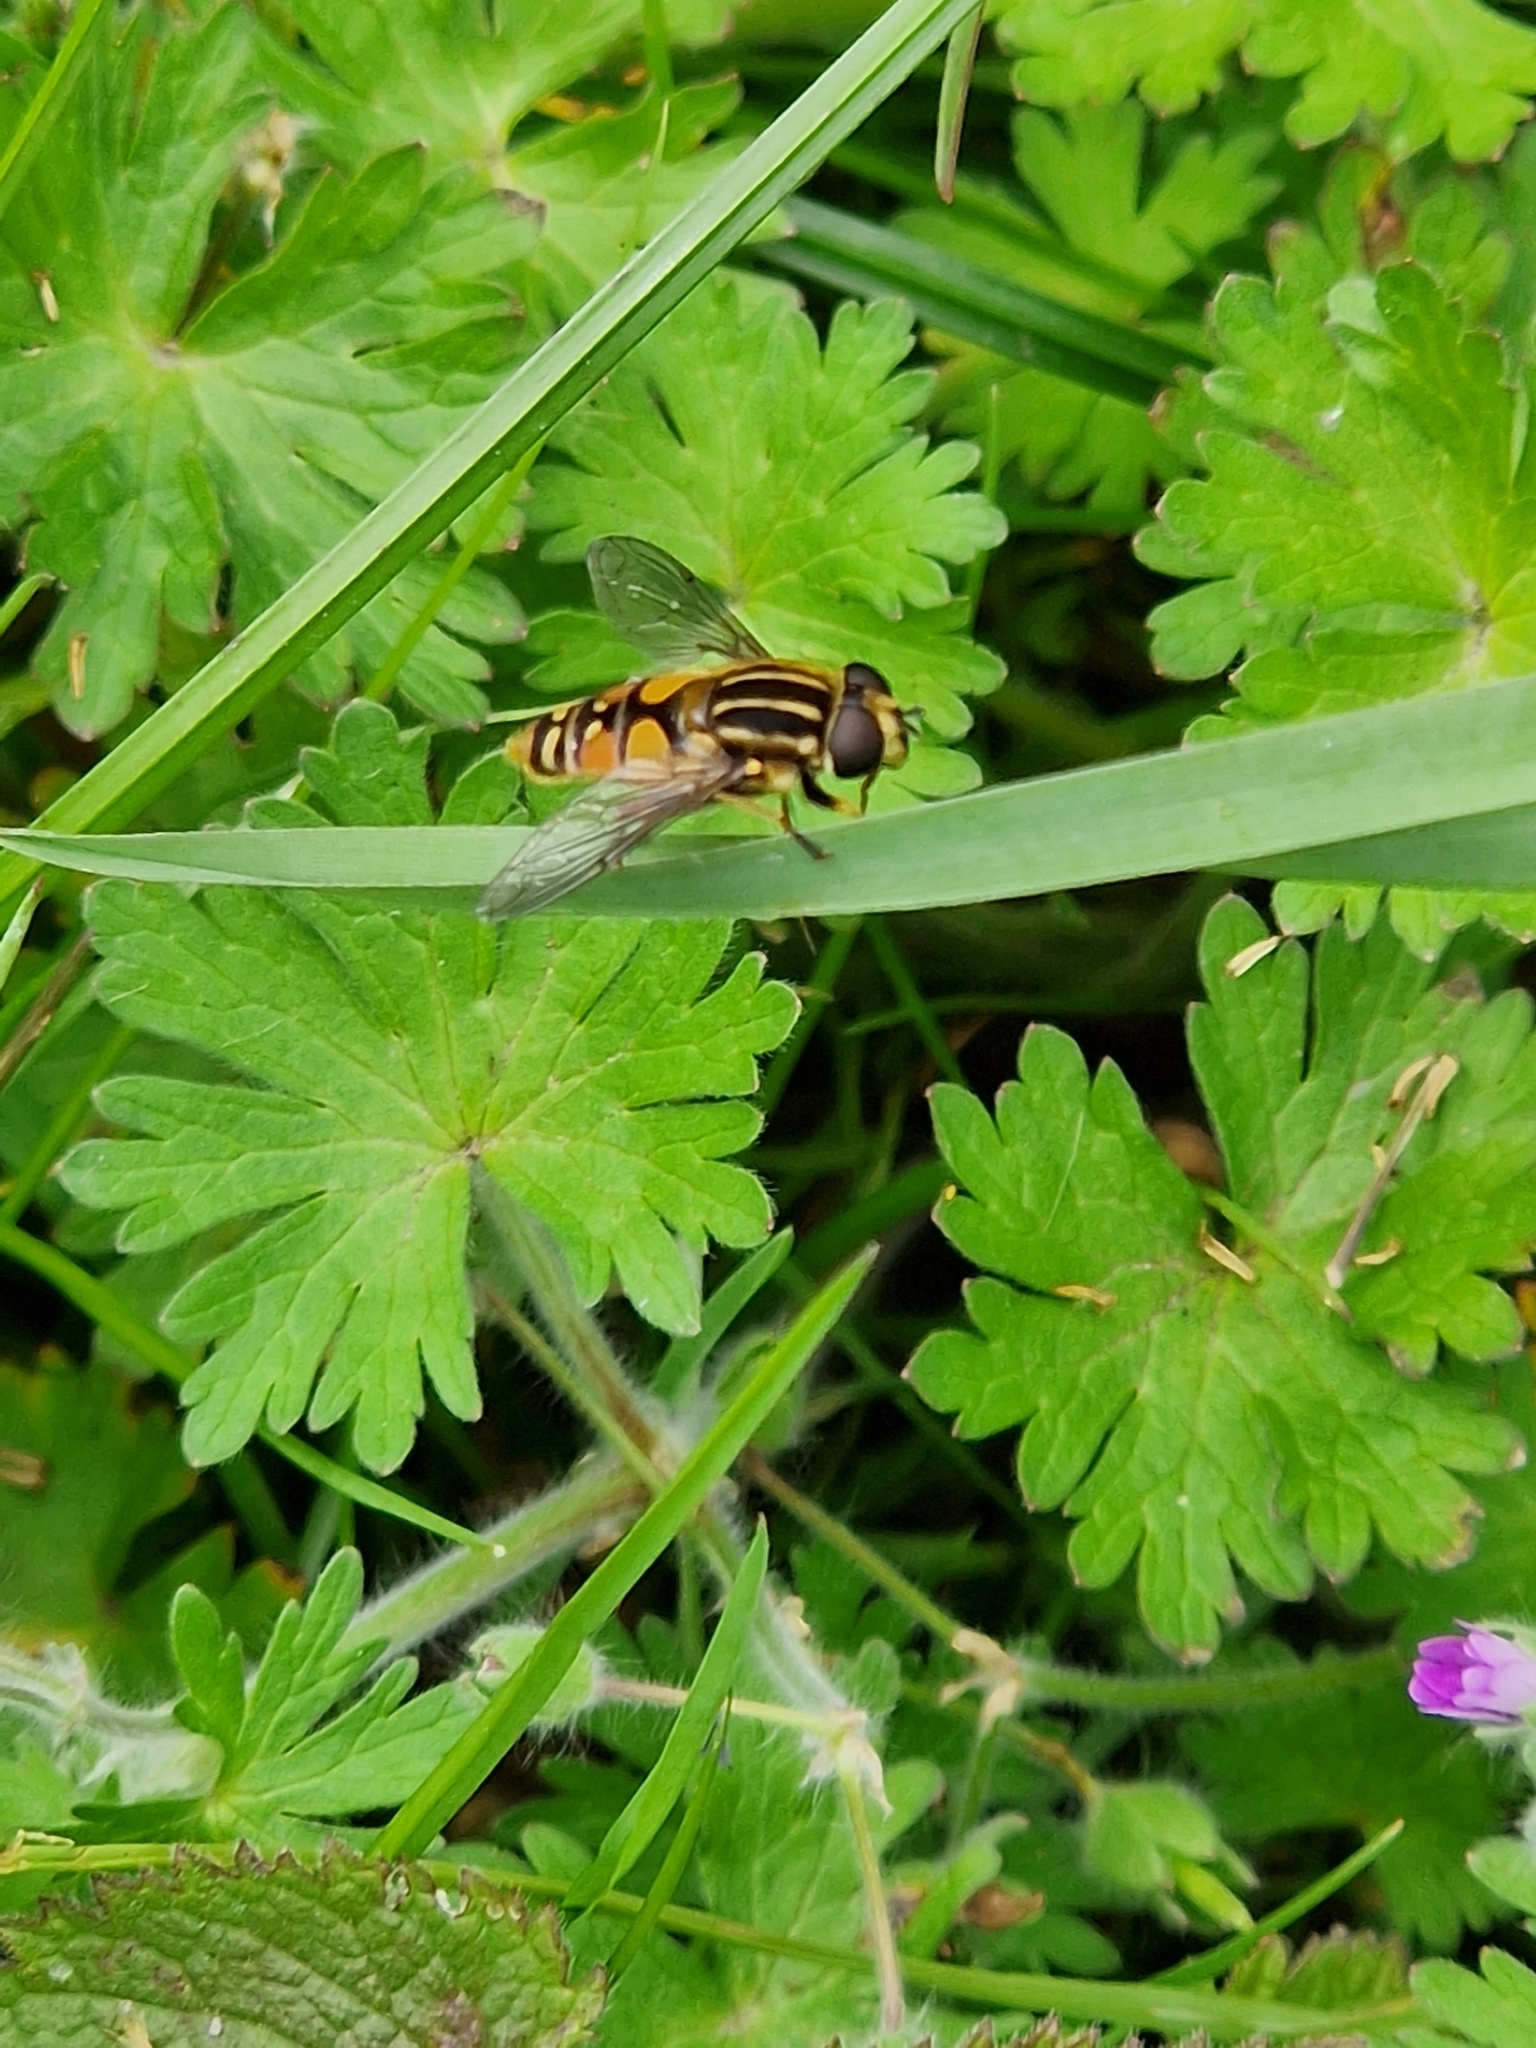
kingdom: Animalia
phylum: Arthropoda
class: Insecta
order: Diptera
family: Syrphidae
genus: Helophilus
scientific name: Helophilus pendulus
